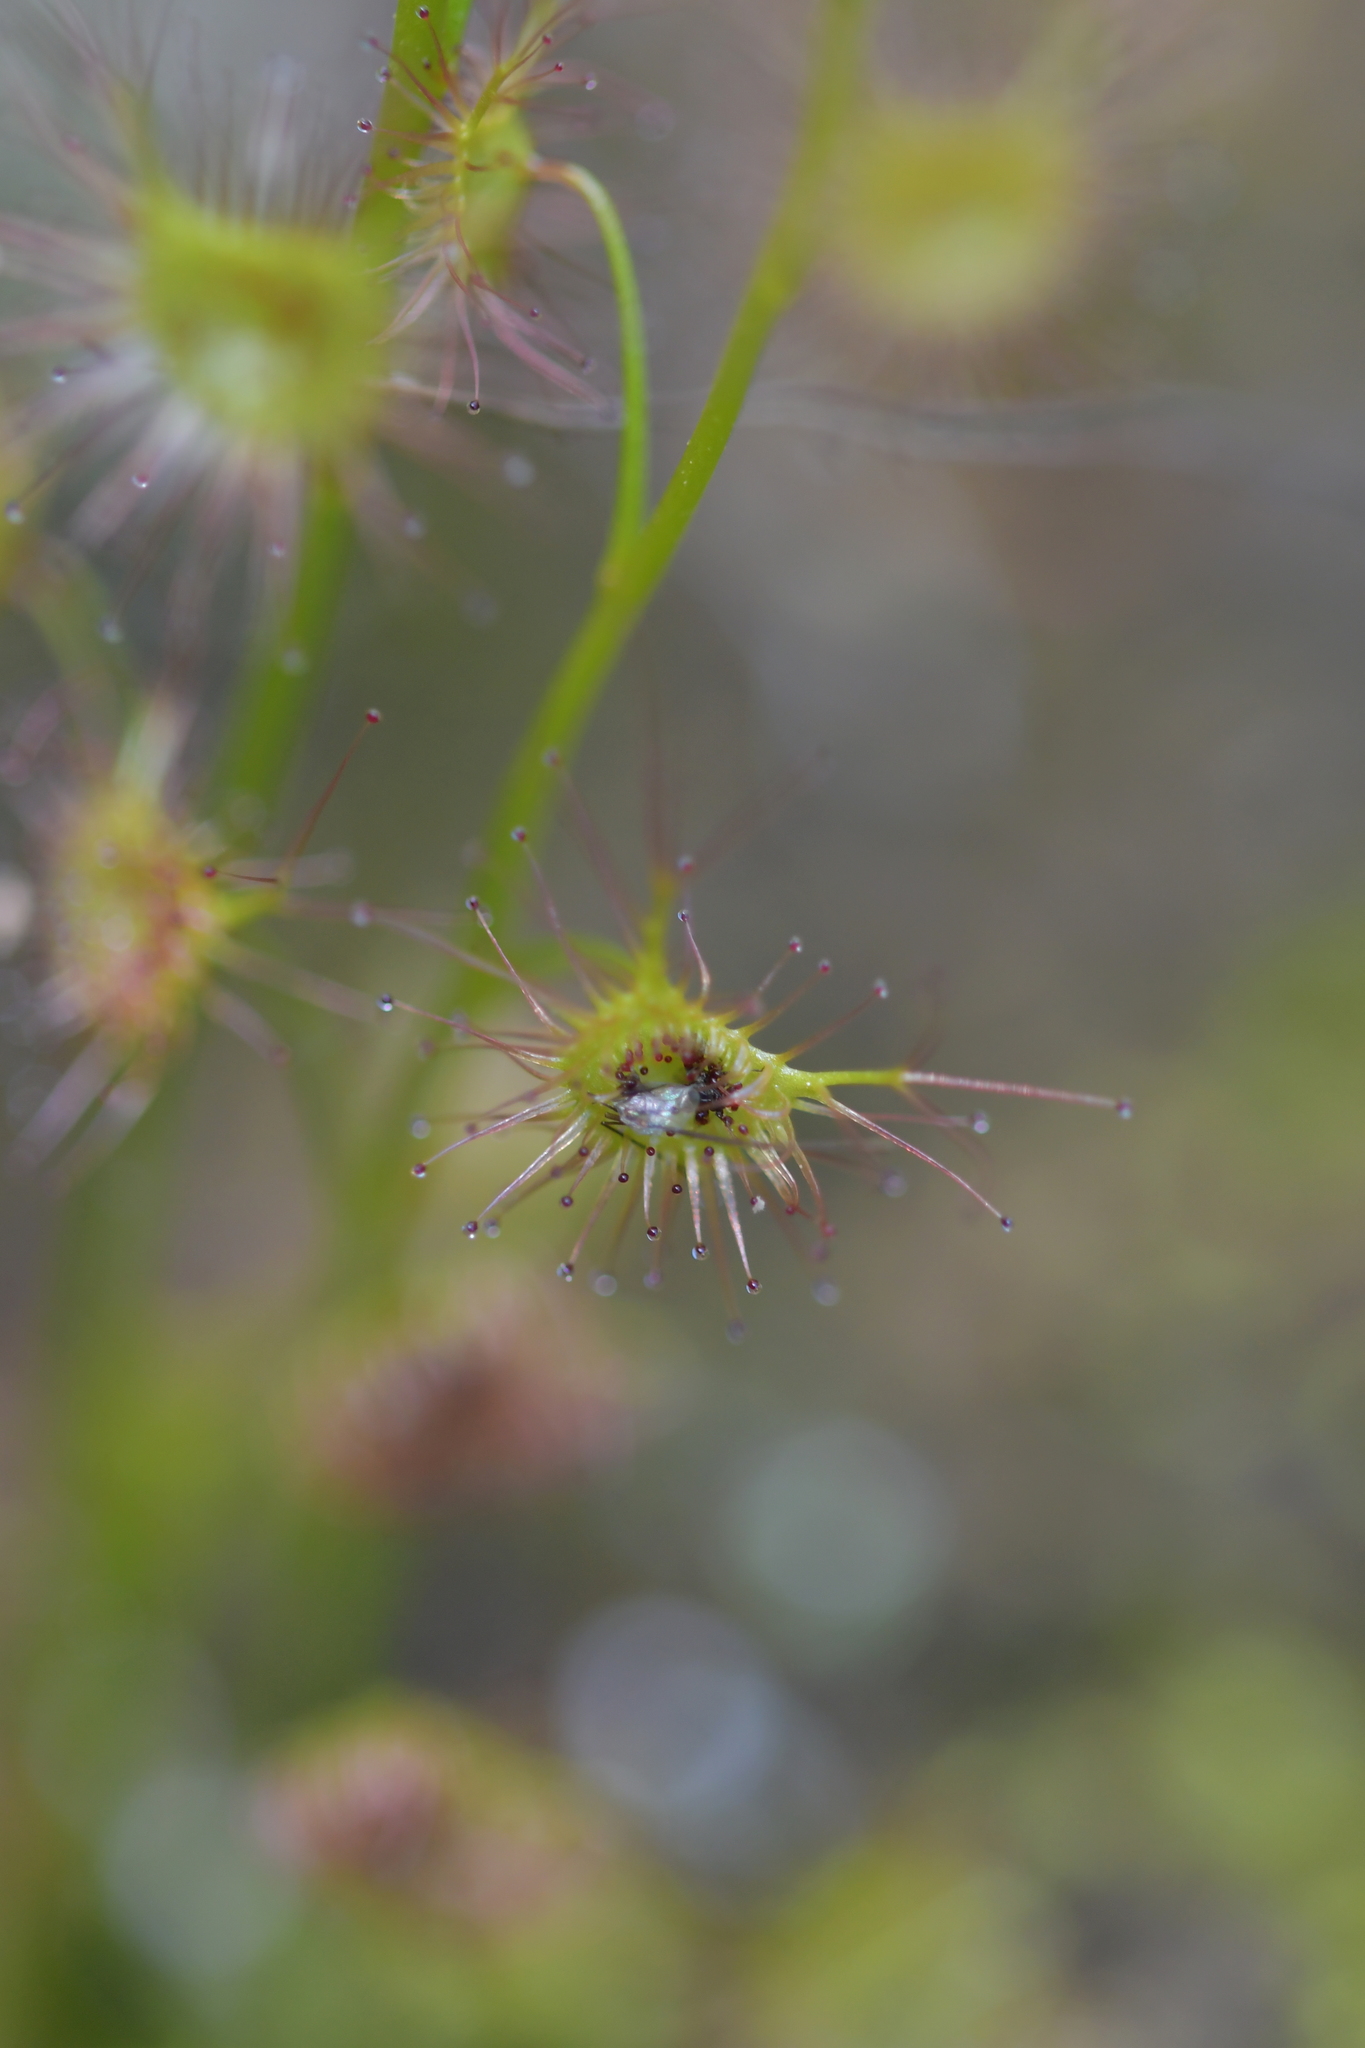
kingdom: Plantae
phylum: Tracheophyta
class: Magnoliopsida
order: Caryophyllales
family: Droseraceae
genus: Drosera
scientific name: Drosera peltata
